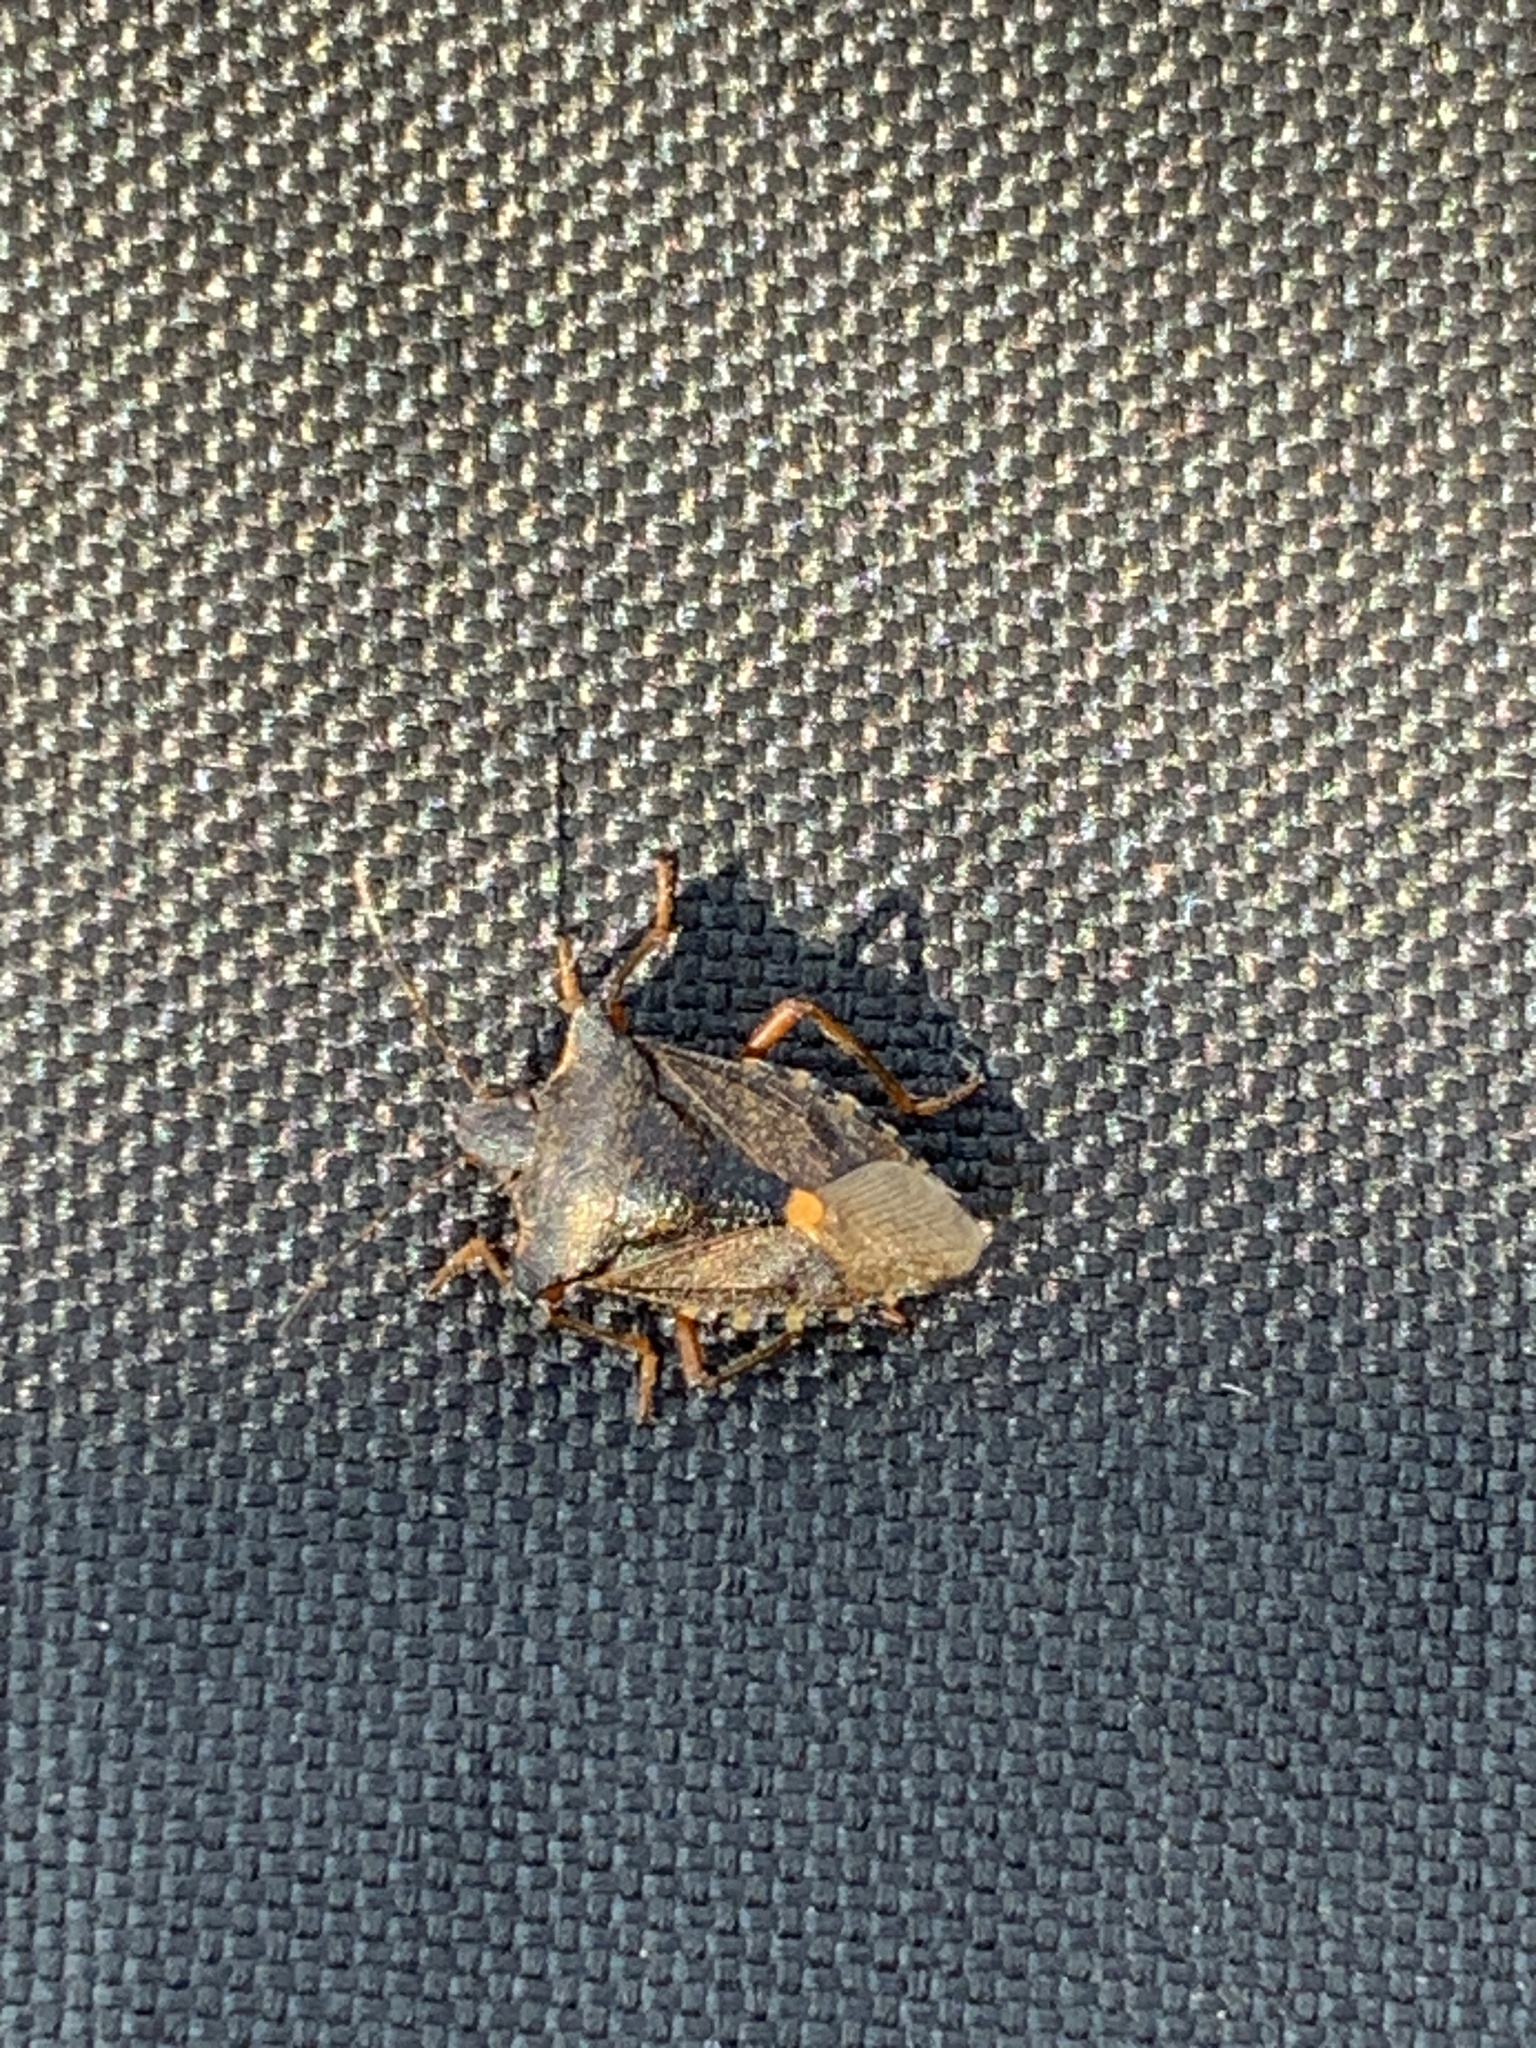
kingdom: Animalia
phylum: Arthropoda
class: Insecta
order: Hemiptera
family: Pentatomidae
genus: Pentatoma
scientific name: Pentatoma rufipes
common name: Forest bug
